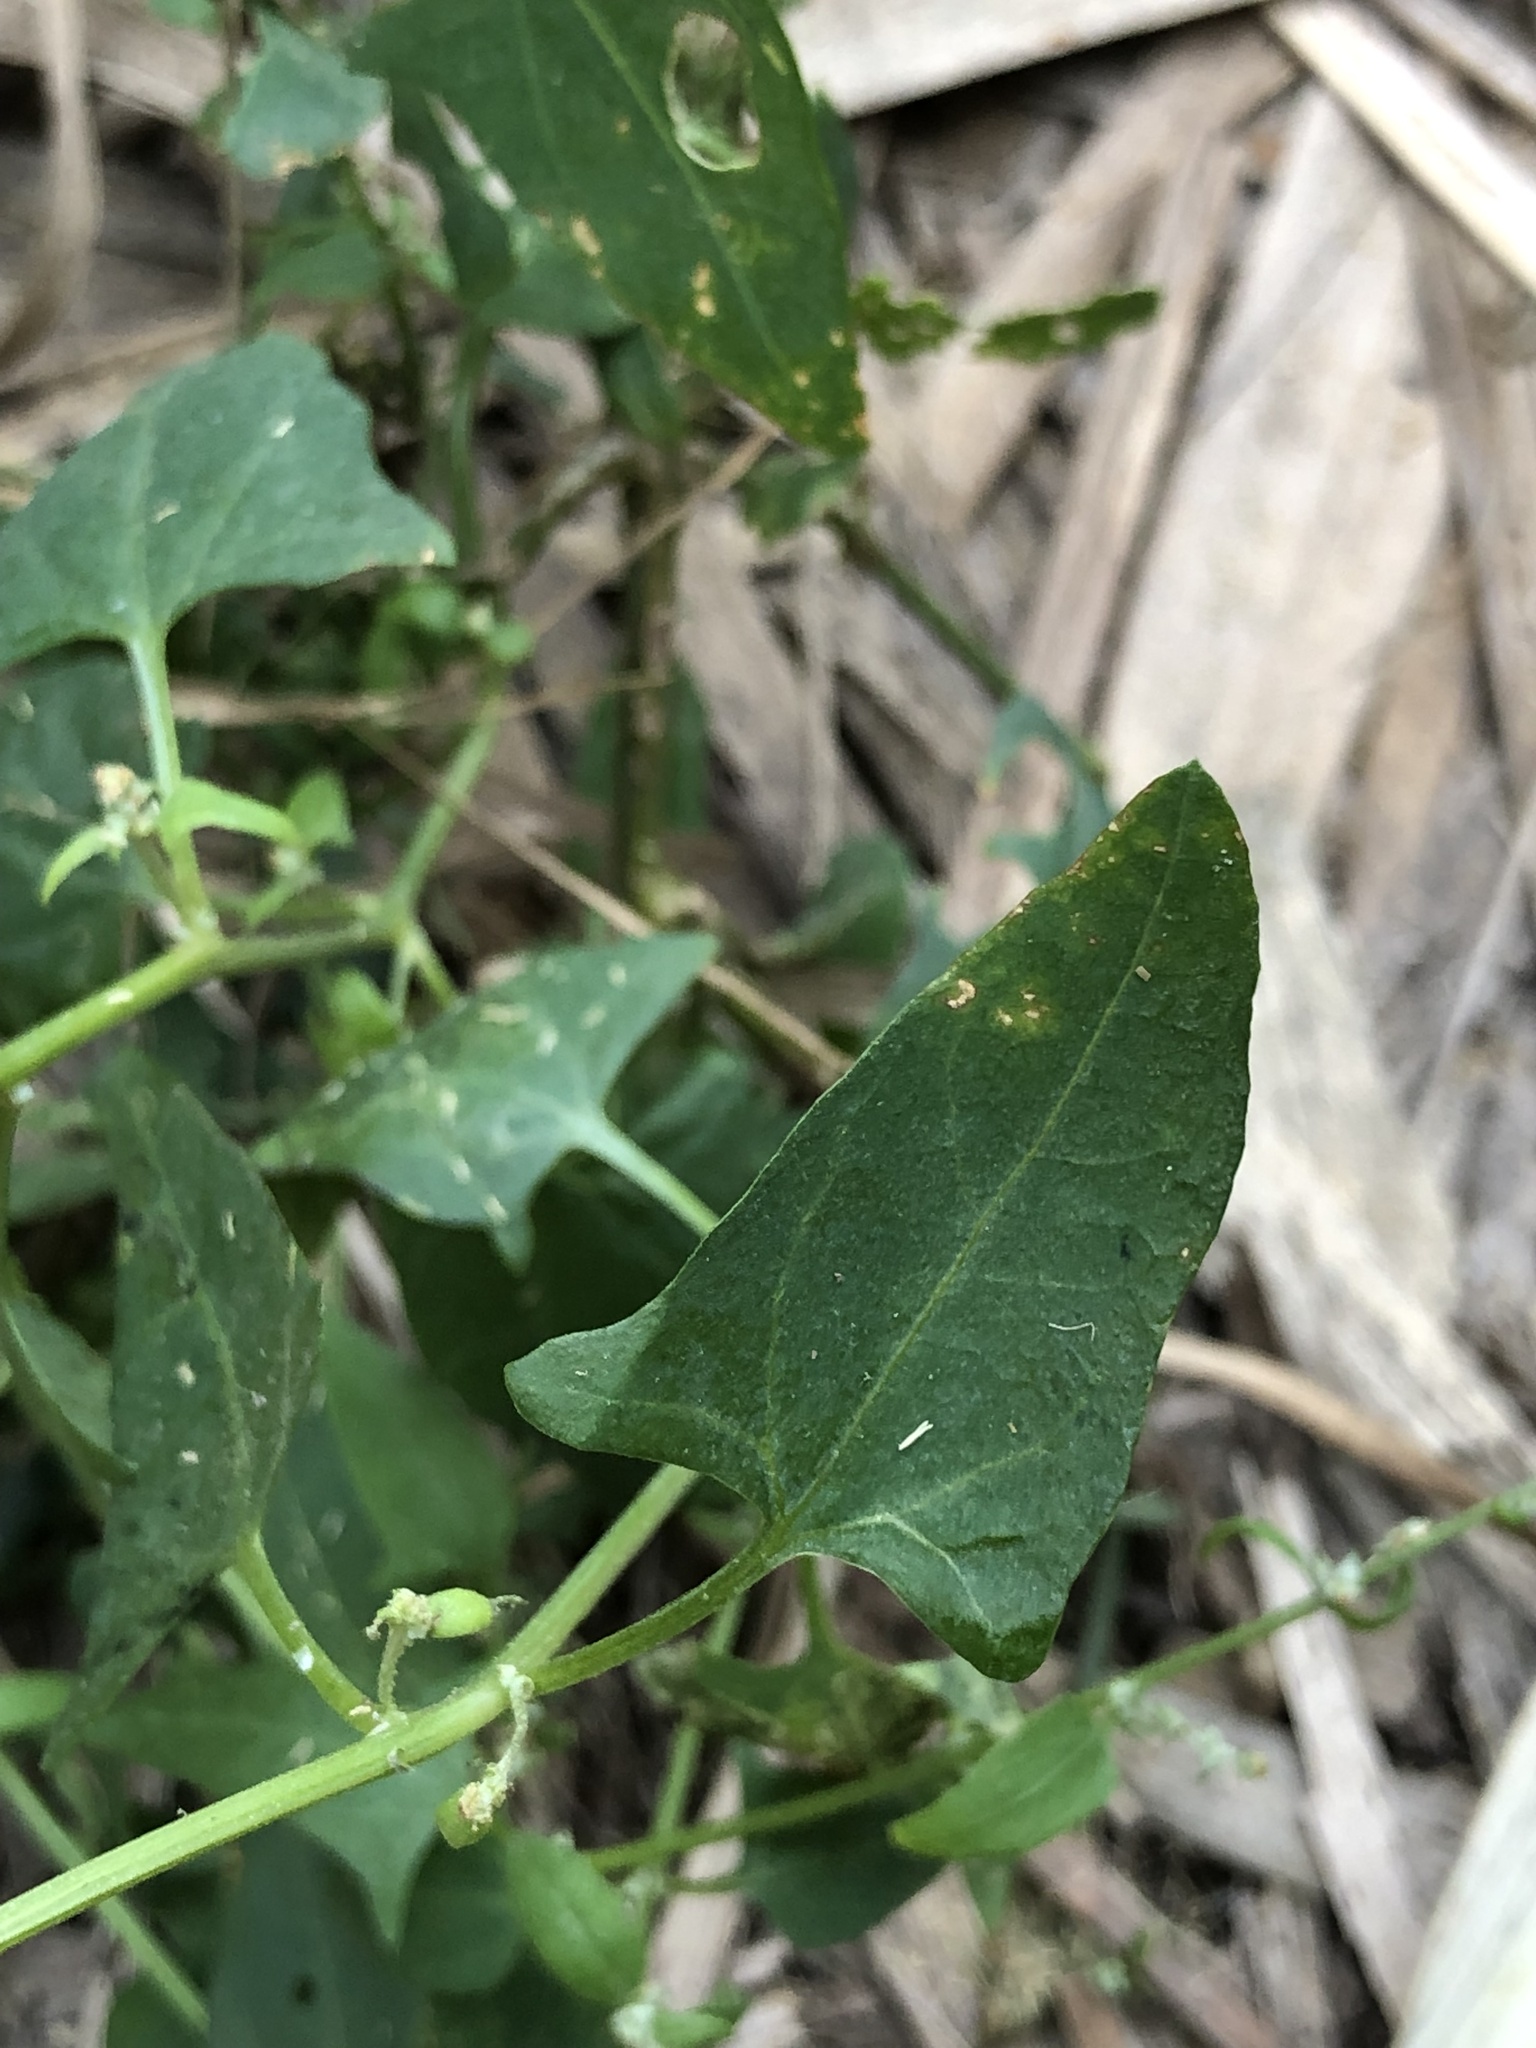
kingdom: Plantae
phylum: Tracheophyta
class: Magnoliopsida
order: Caryophyllales
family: Amaranthaceae
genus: Atriplex
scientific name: Atriplex prostrata
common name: Spear-leaved orache
